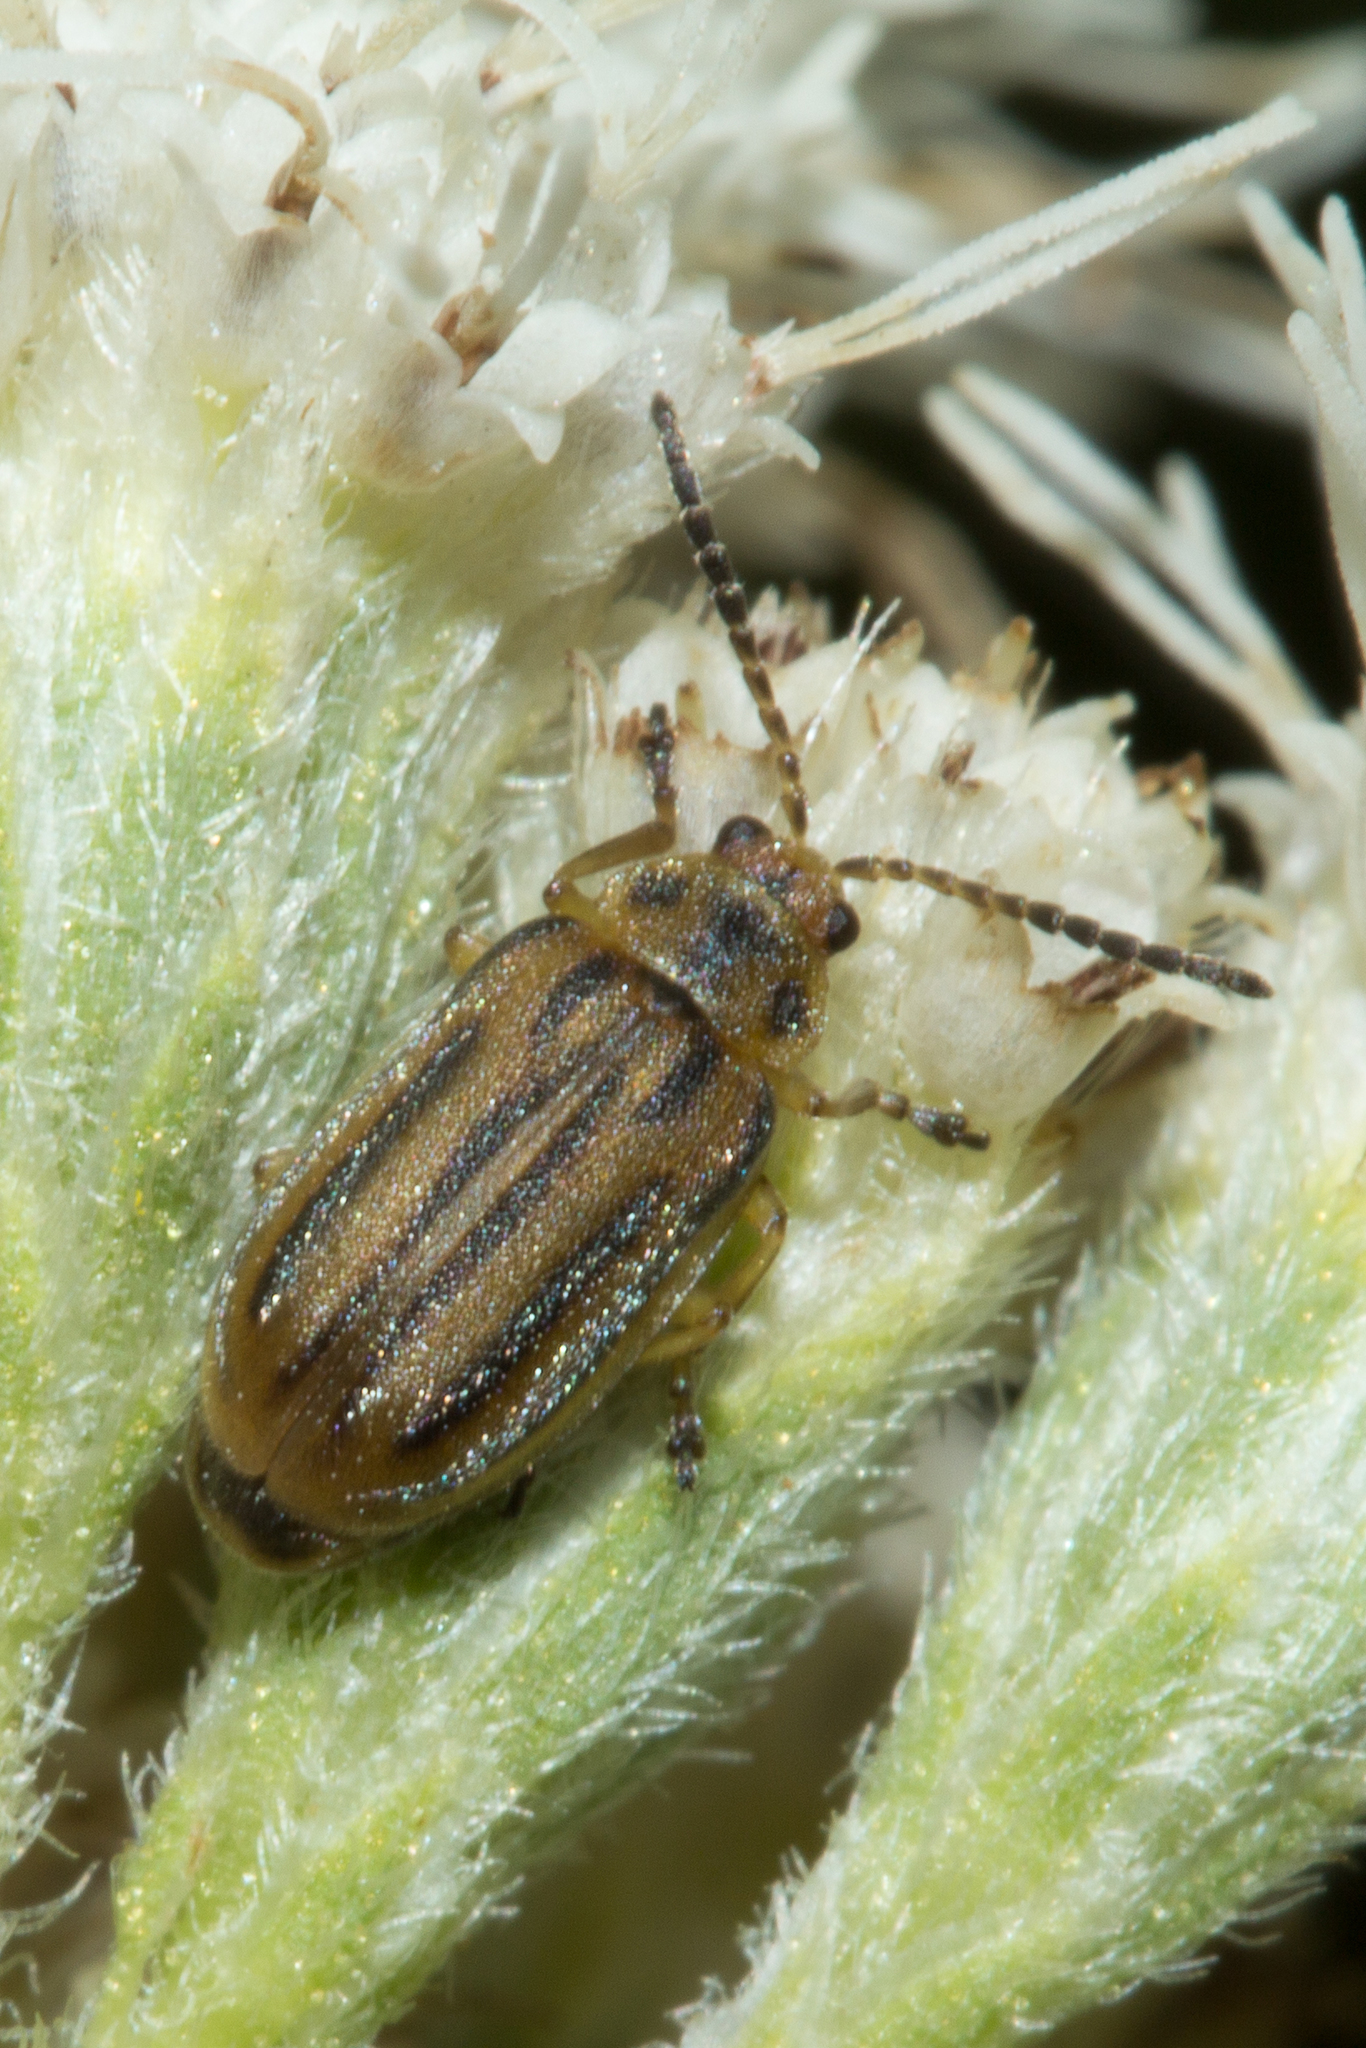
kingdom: Animalia
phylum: Arthropoda
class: Insecta
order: Coleoptera
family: Chrysomelidae
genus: Ophraella
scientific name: Ophraella notata
